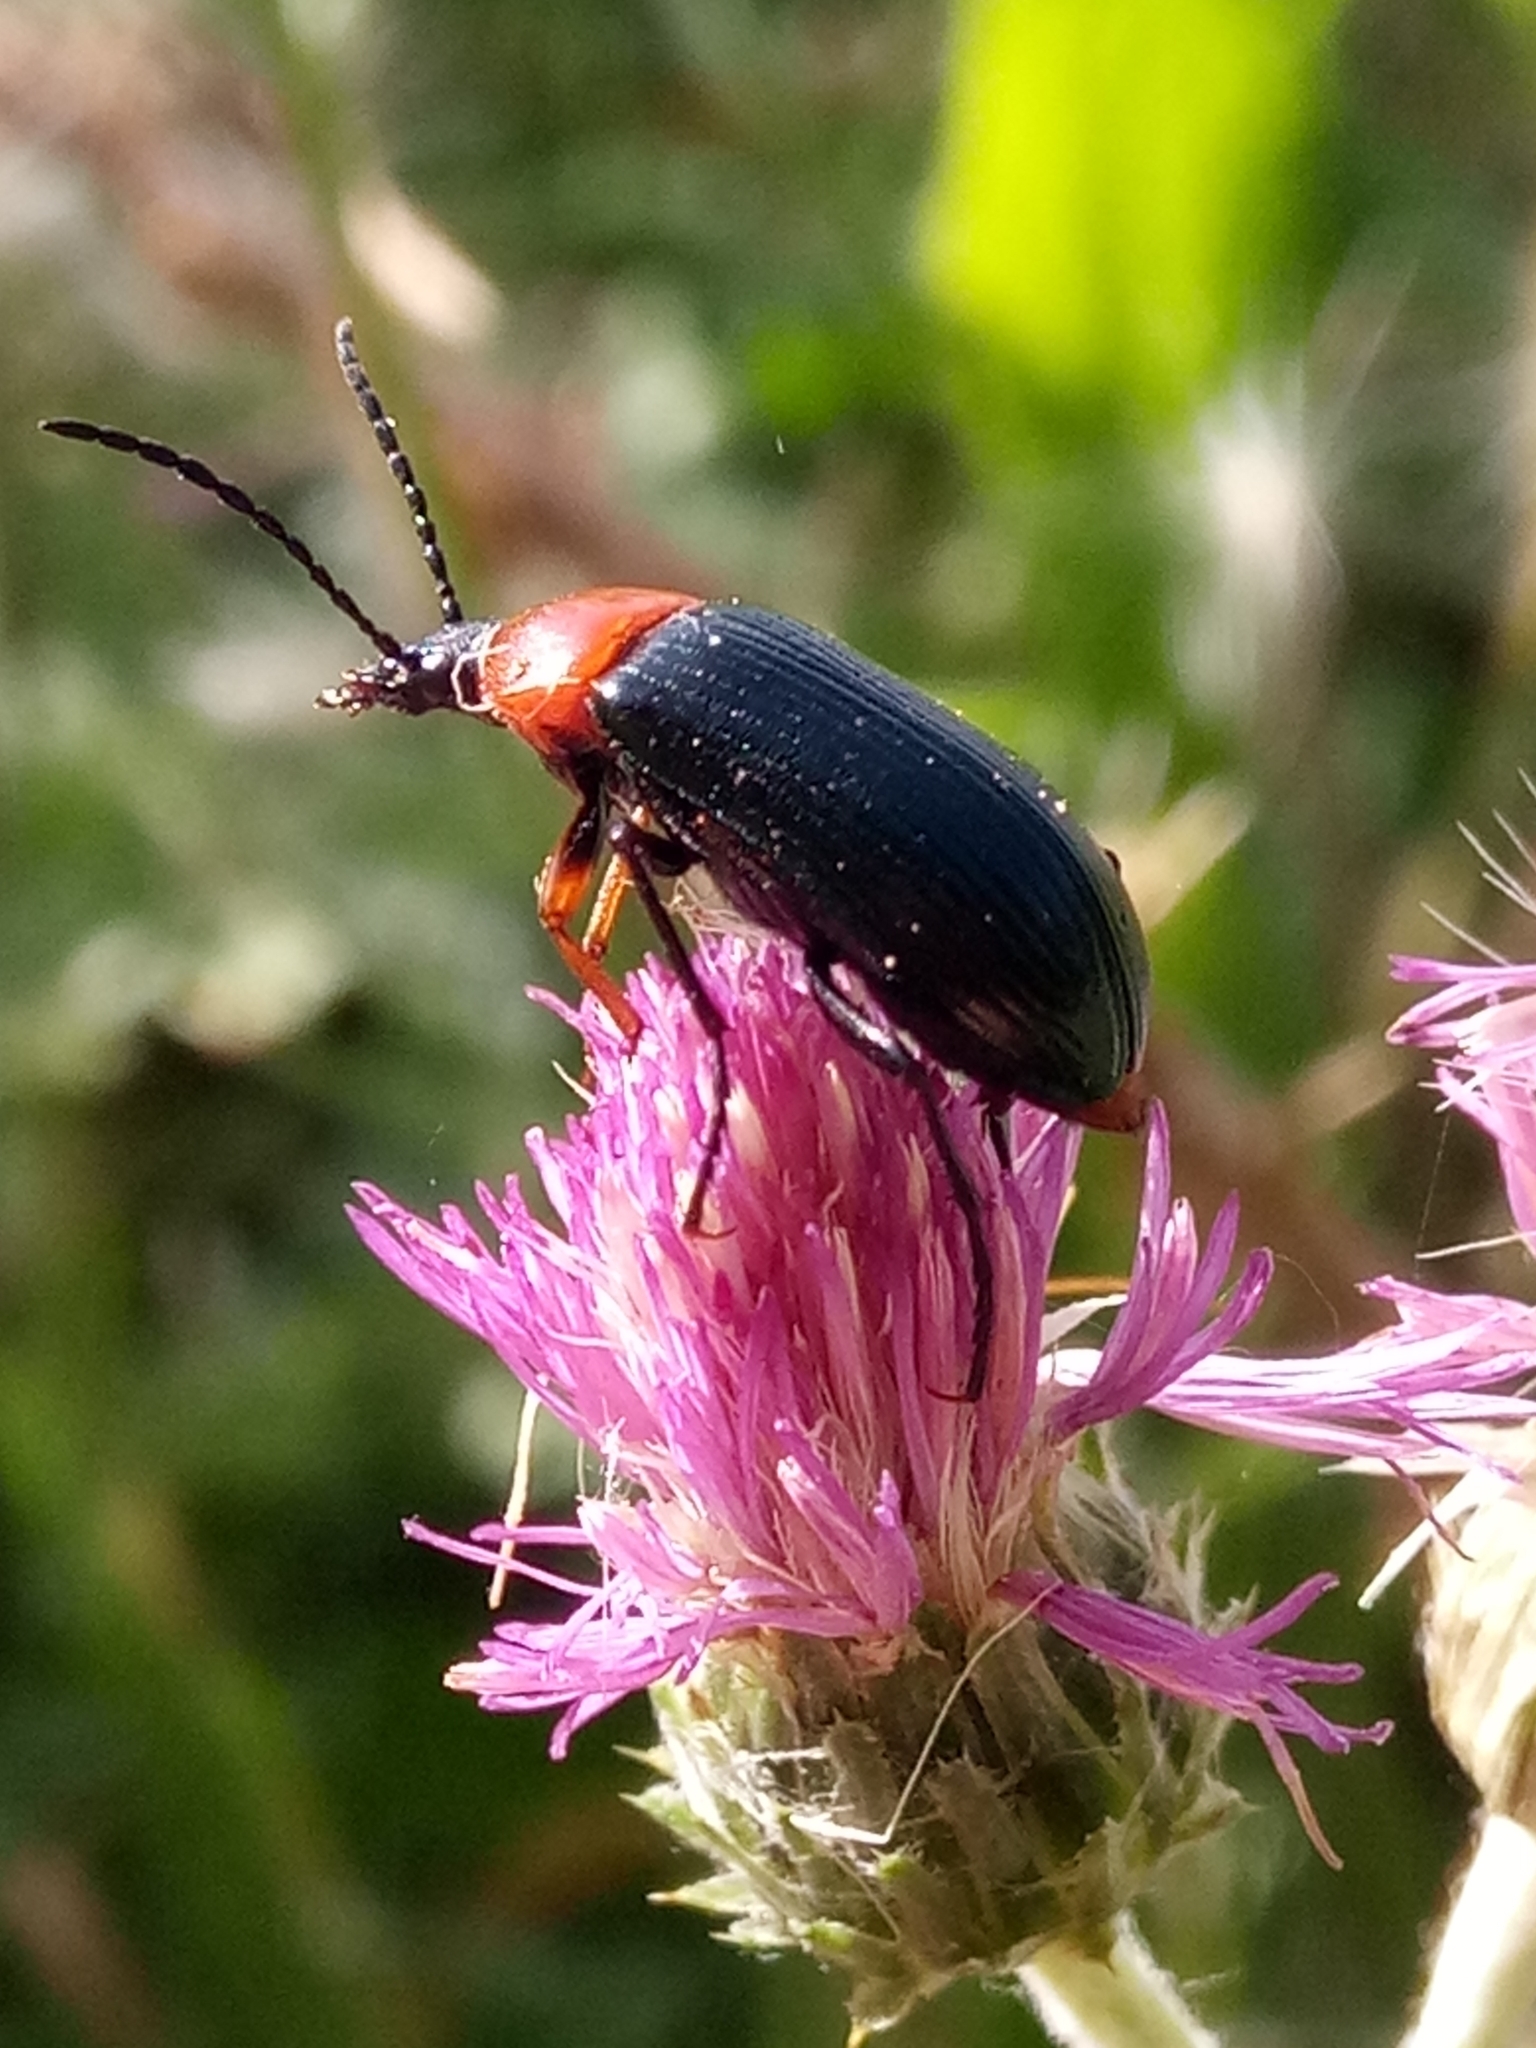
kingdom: Animalia
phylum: Arthropoda
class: Insecta
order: Coleoptera
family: Tenebrionidae
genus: Heliotaurus
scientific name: Heliotaurus ruficollis
